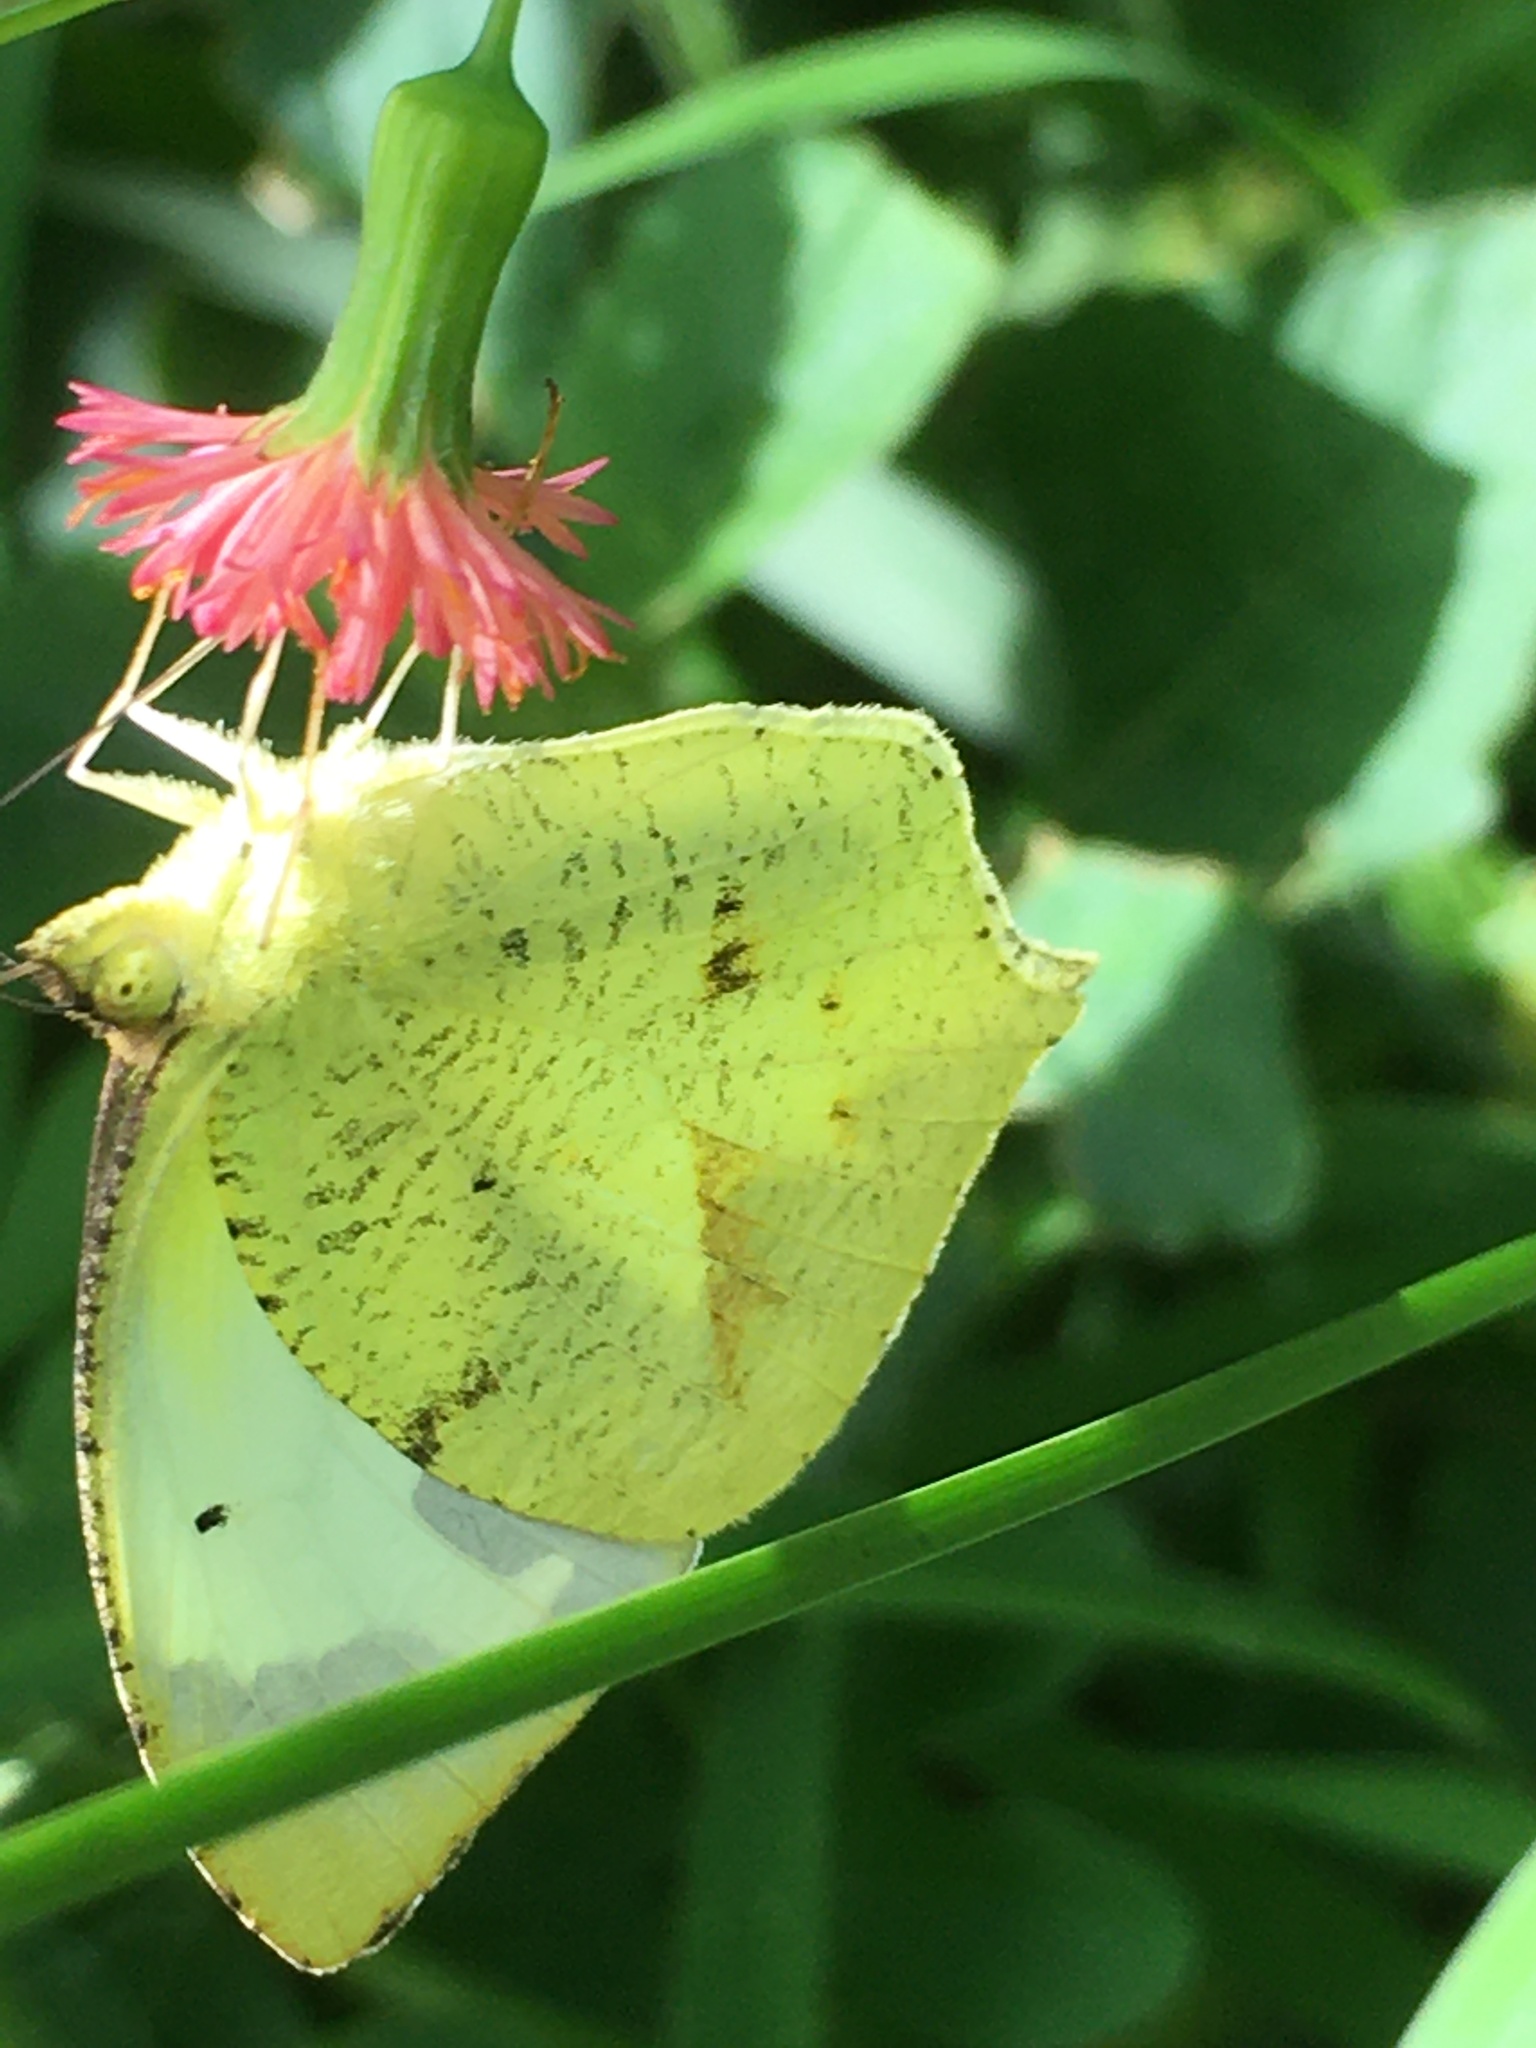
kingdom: Animalia
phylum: Arthropoda
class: Insecta
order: Lepidoptera
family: Pieridae
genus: Abaeis
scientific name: Abaeis mexicana
